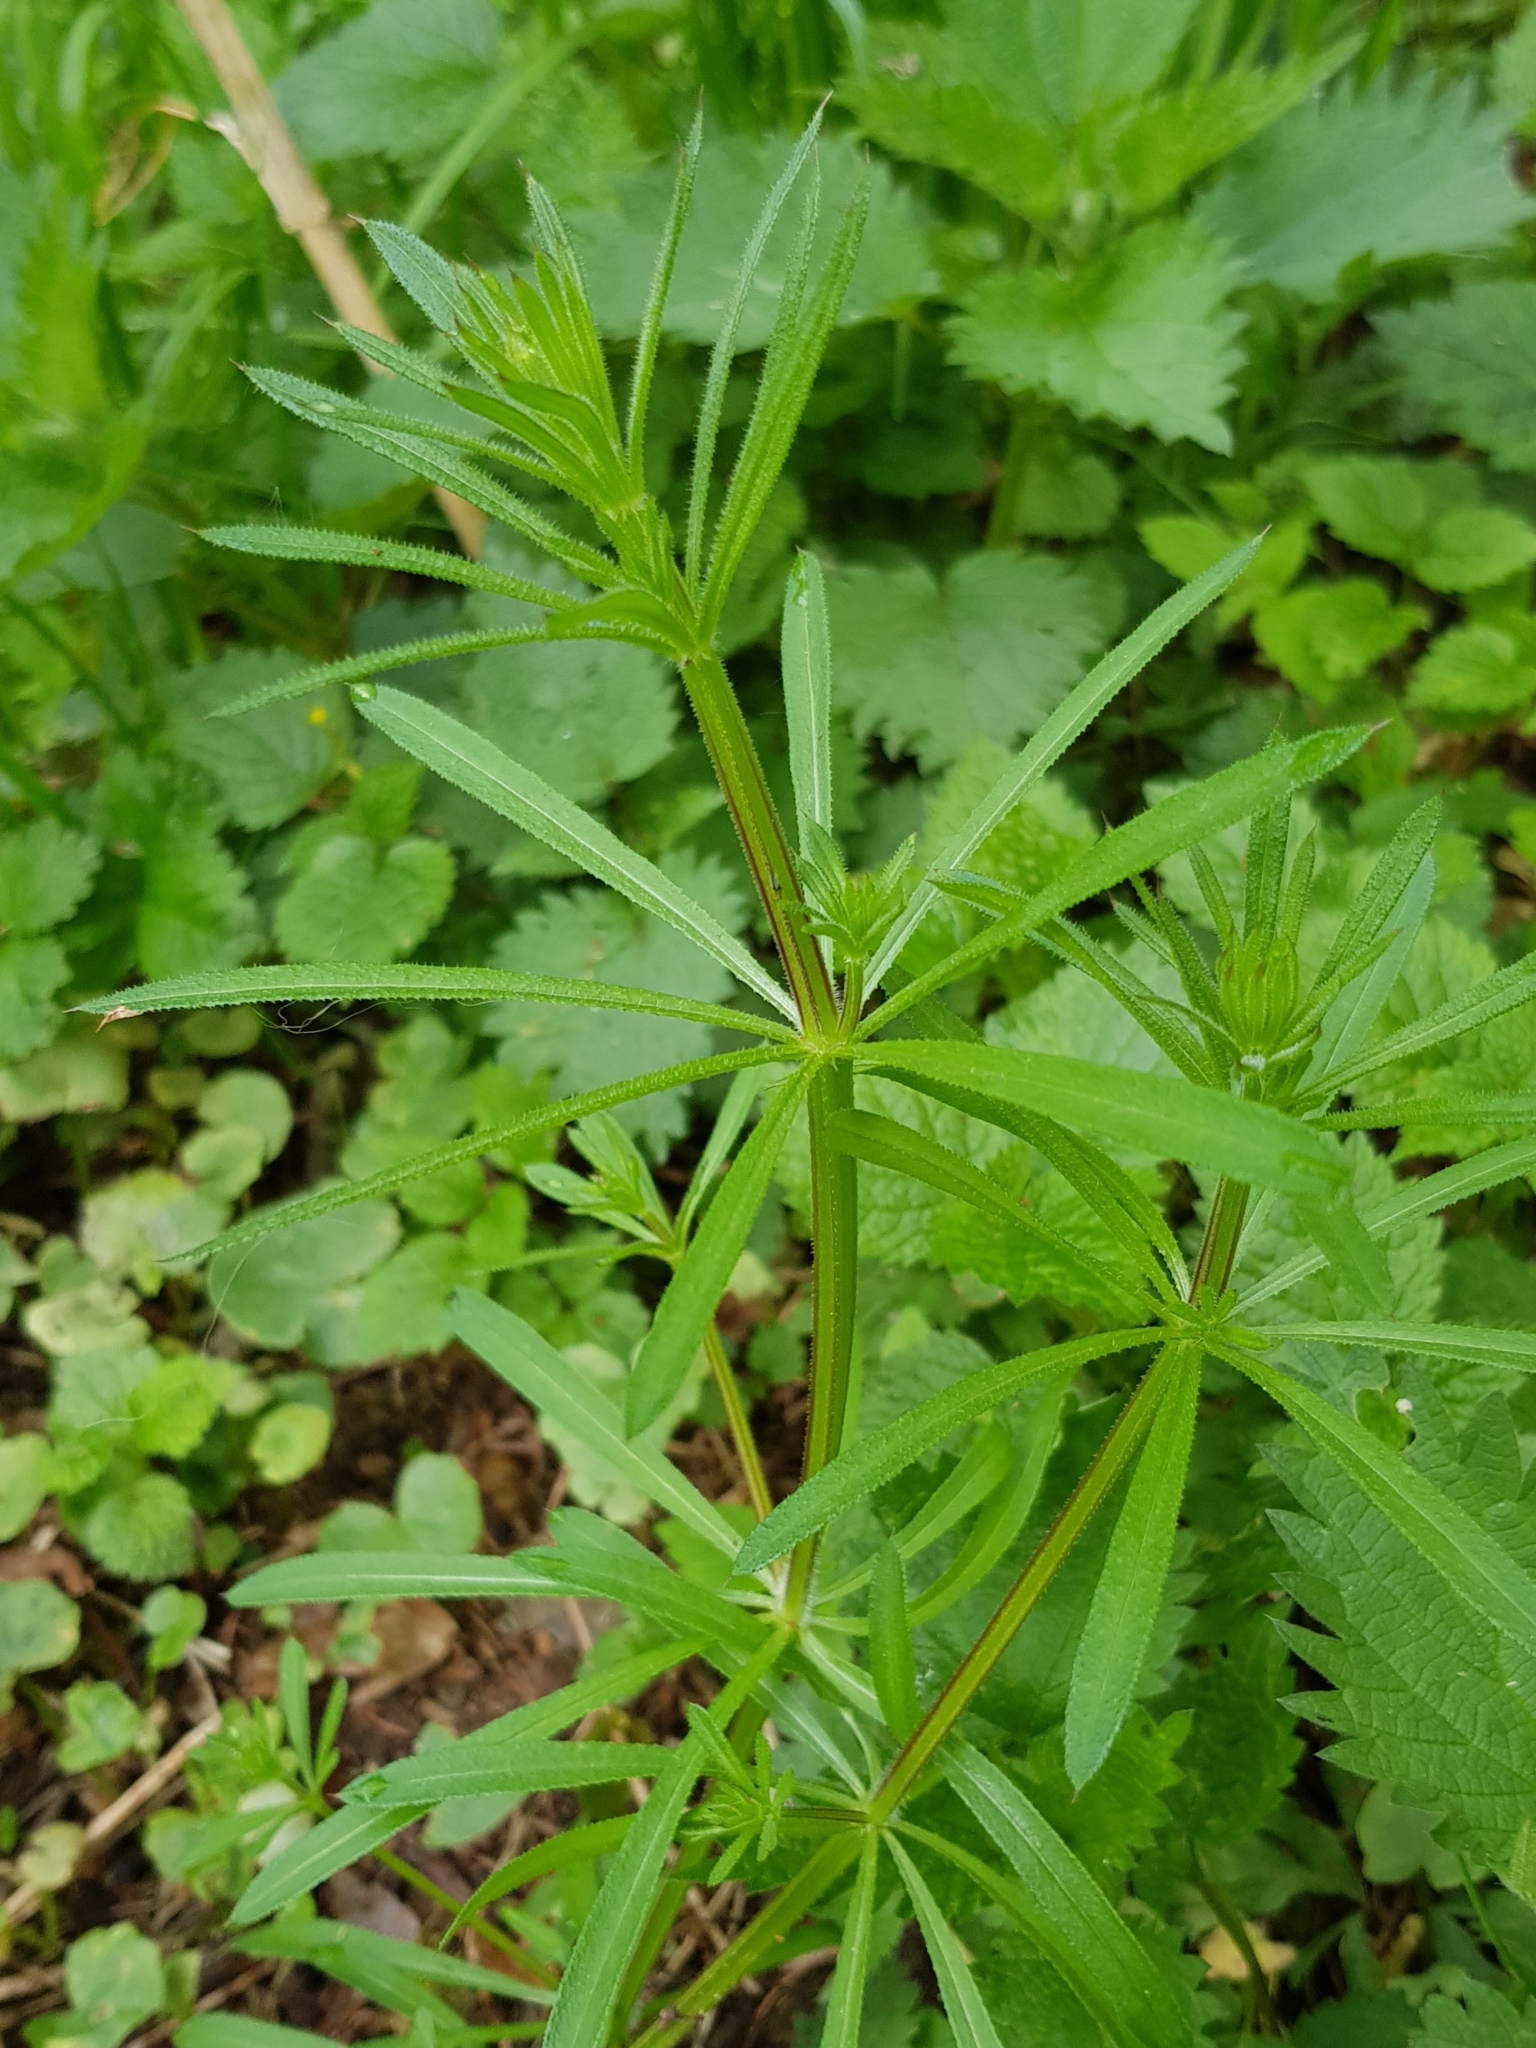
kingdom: Plantae
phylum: Tracheophyta
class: Magnoliopsida
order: Gentianales
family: Rubiaceae
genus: Galium
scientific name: Galium aparine
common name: Cleavers
